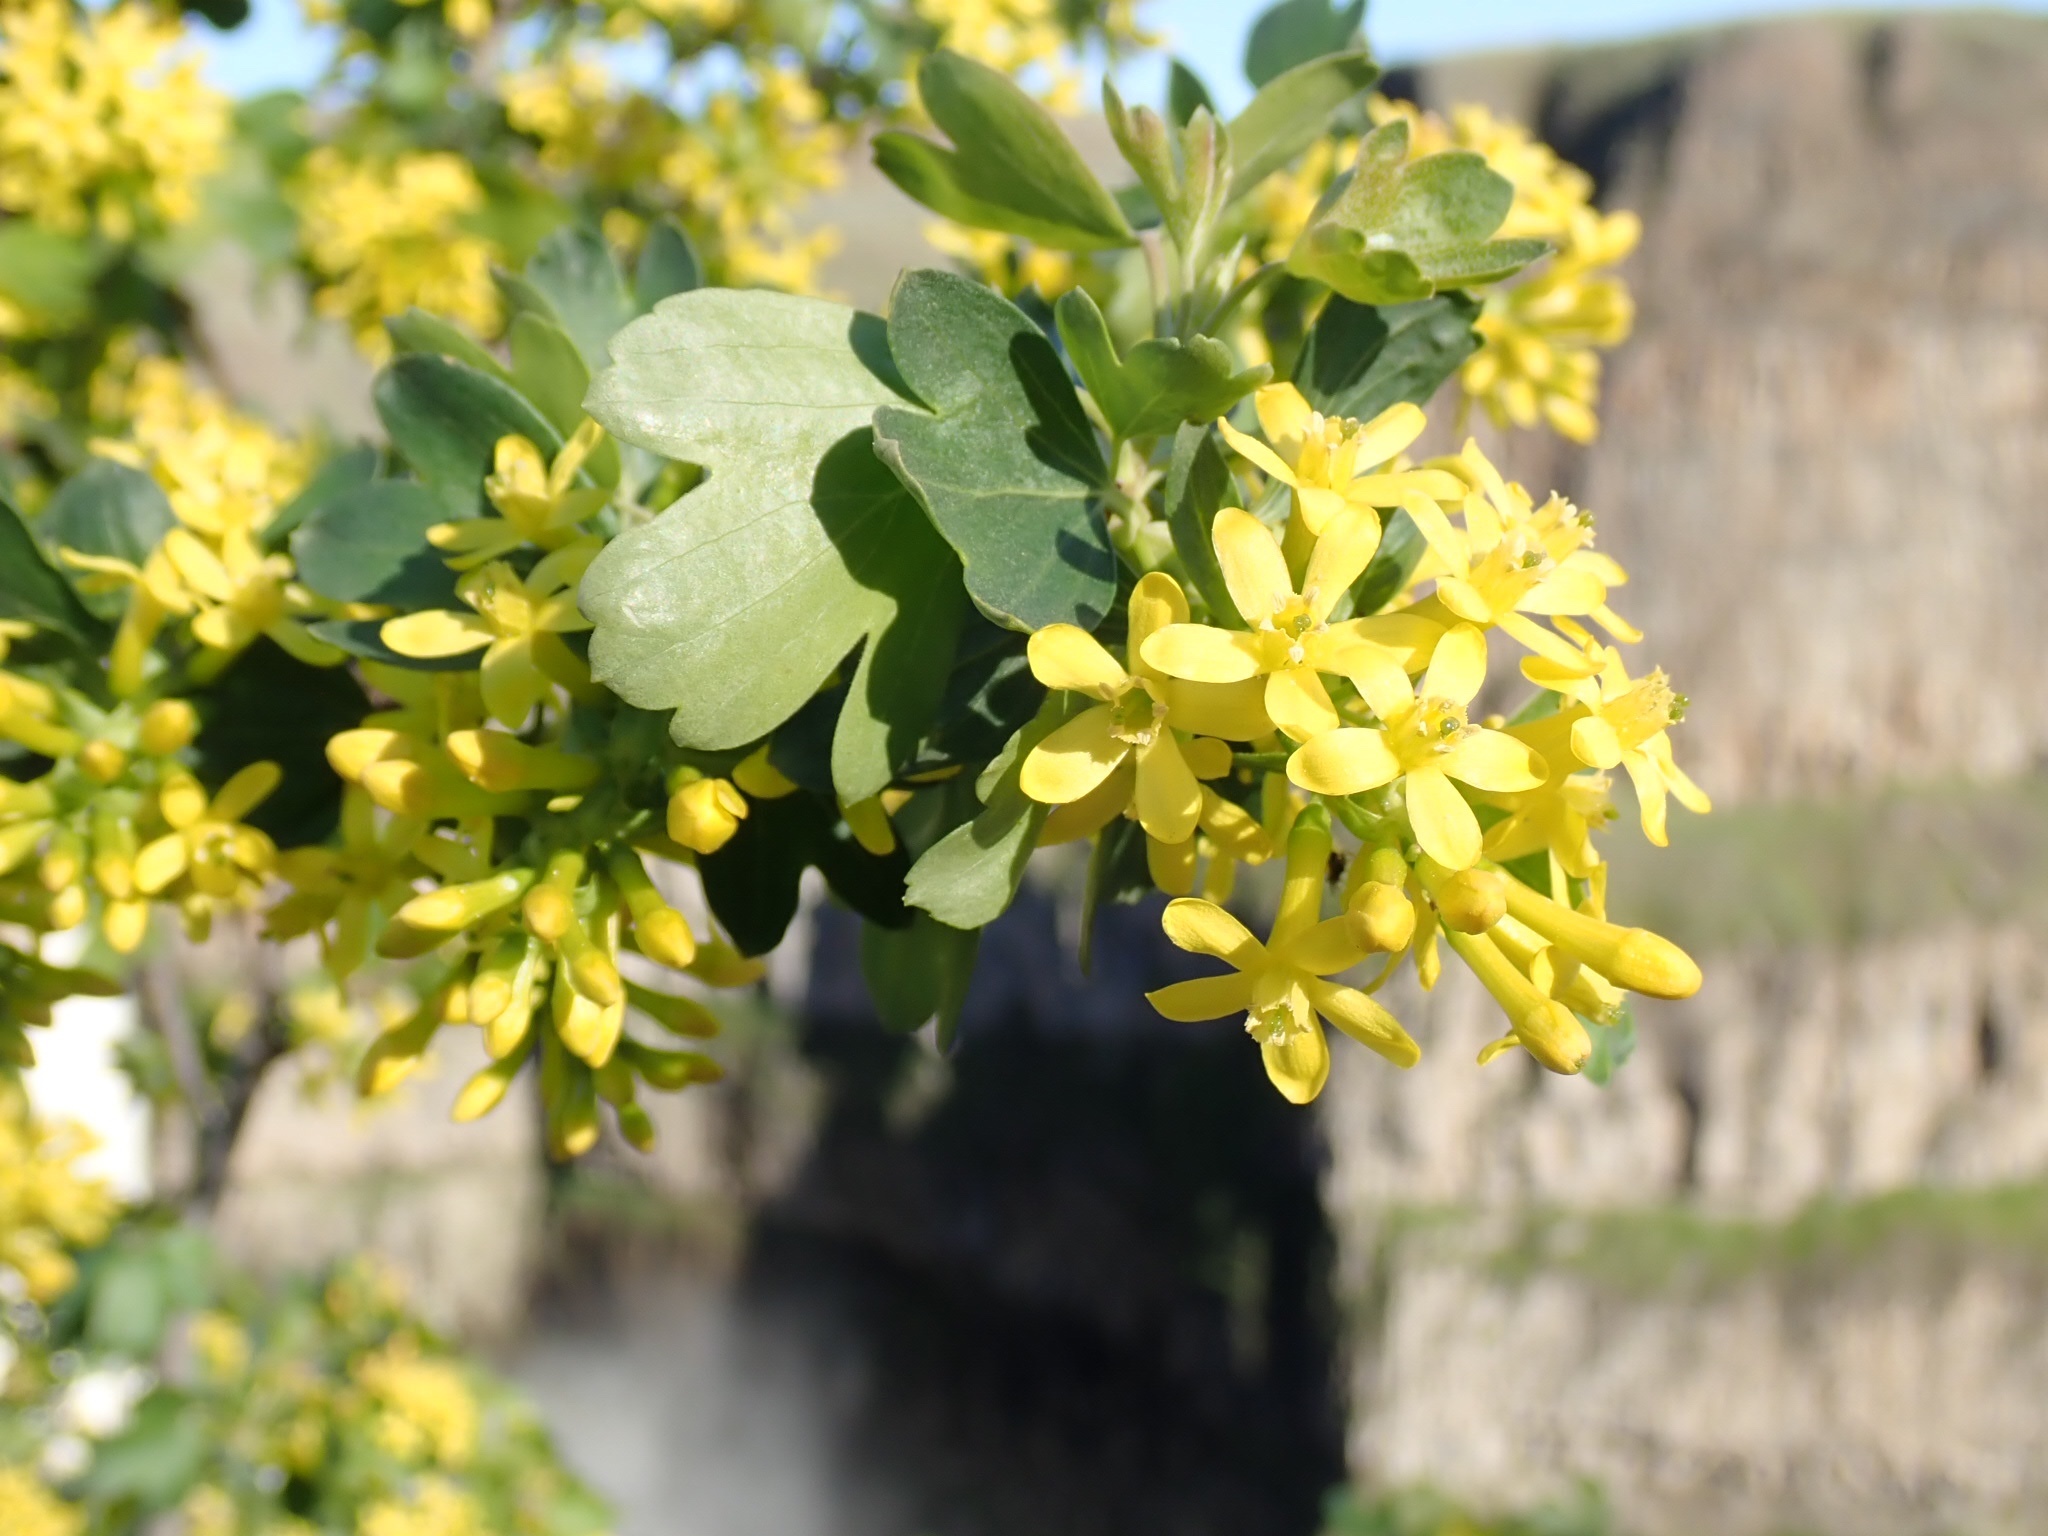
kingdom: Plantae
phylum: Tracheophyta
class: Magnoliopsida
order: Saxifragales
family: Grossulariaceae
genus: Ribes
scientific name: Ribes aureum
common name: Golden currant
